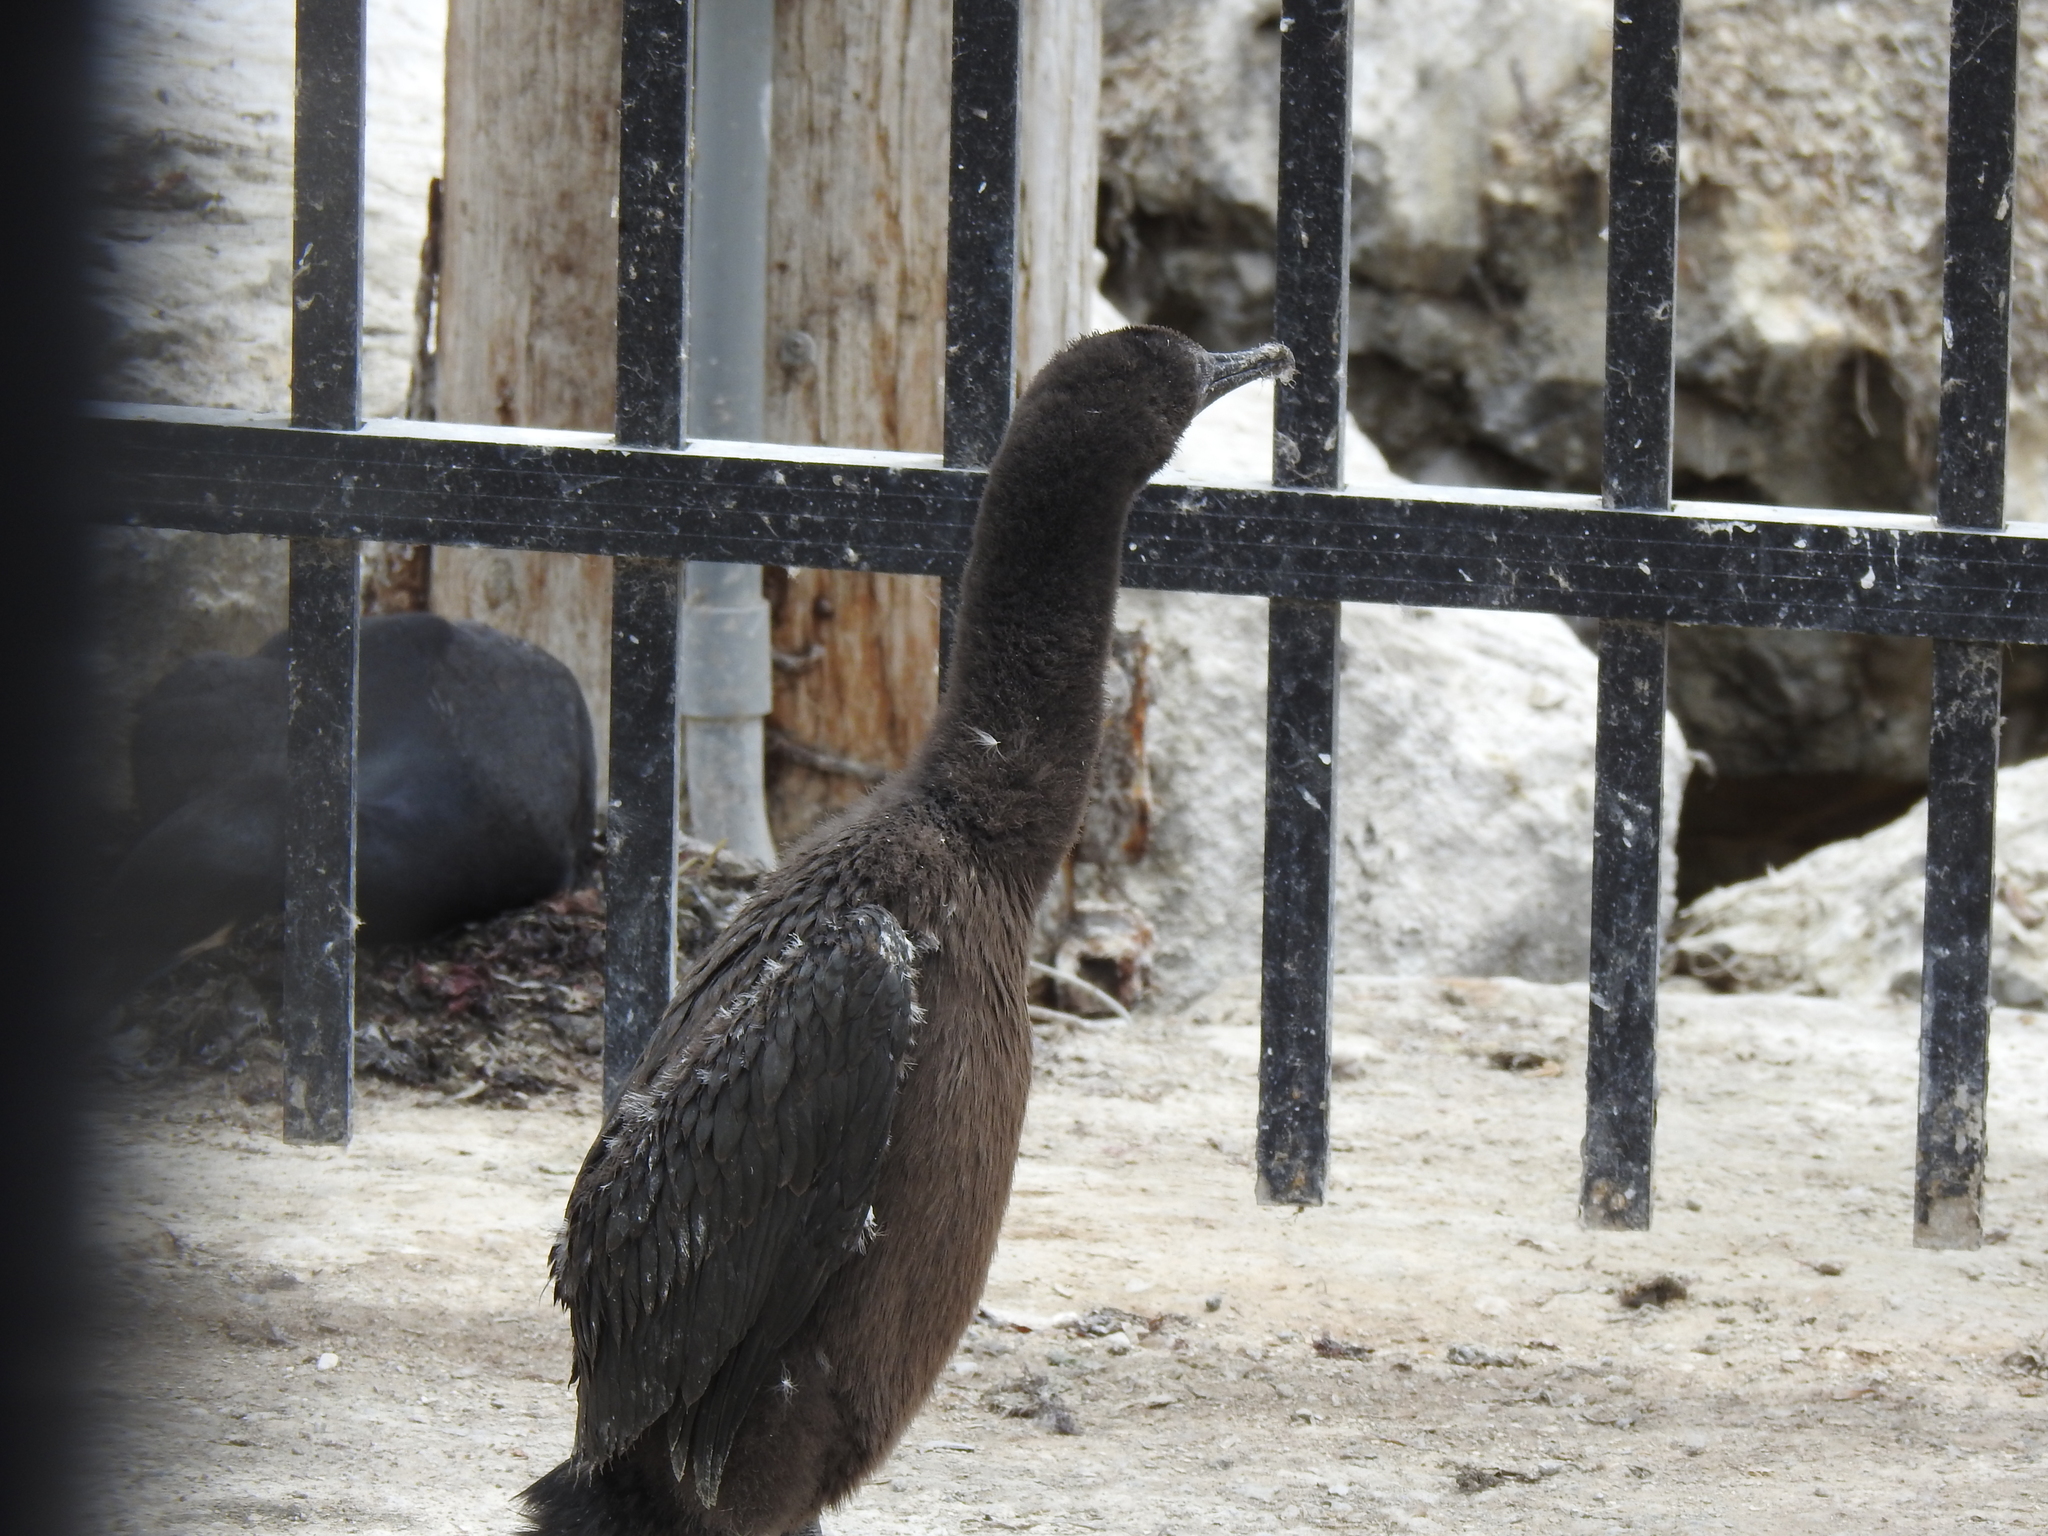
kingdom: Animalia
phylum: Chordata
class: Aves
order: Suliformes
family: Phalacrocoracidae
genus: Urile
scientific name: Urile penicillatus
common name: Brandt's cormorant
